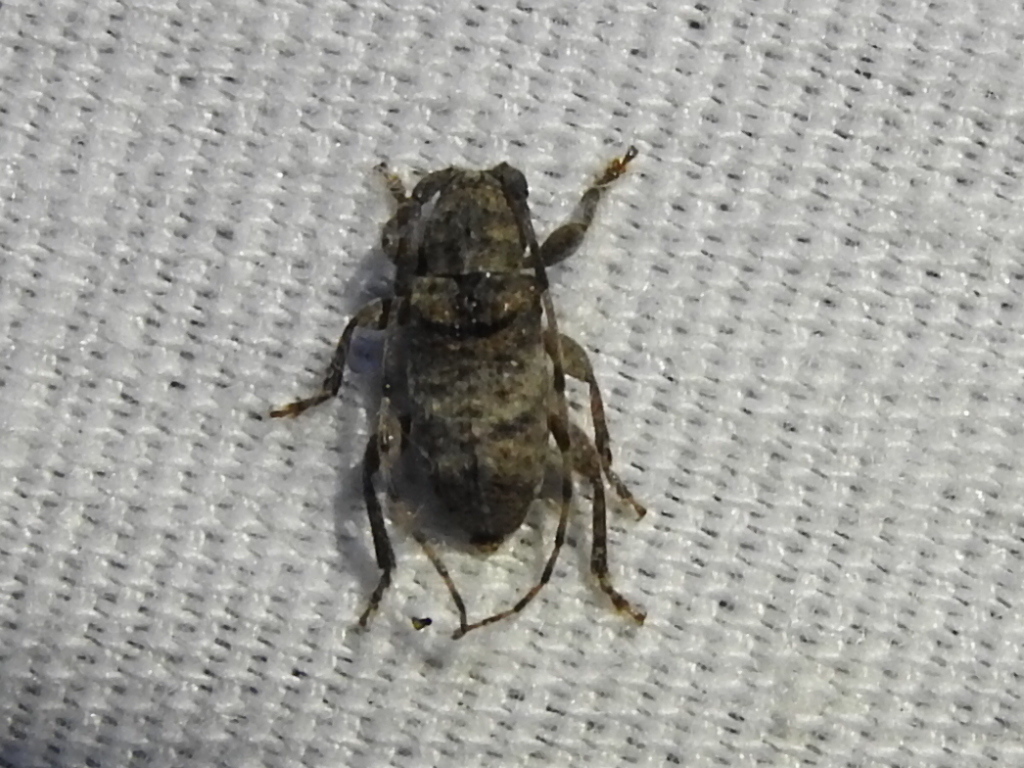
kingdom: Animalia
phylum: Arthropoda
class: Insecta
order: Coleoptera
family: Cerambycidae
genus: Ecyrus
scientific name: Ecyrus dasycerus
